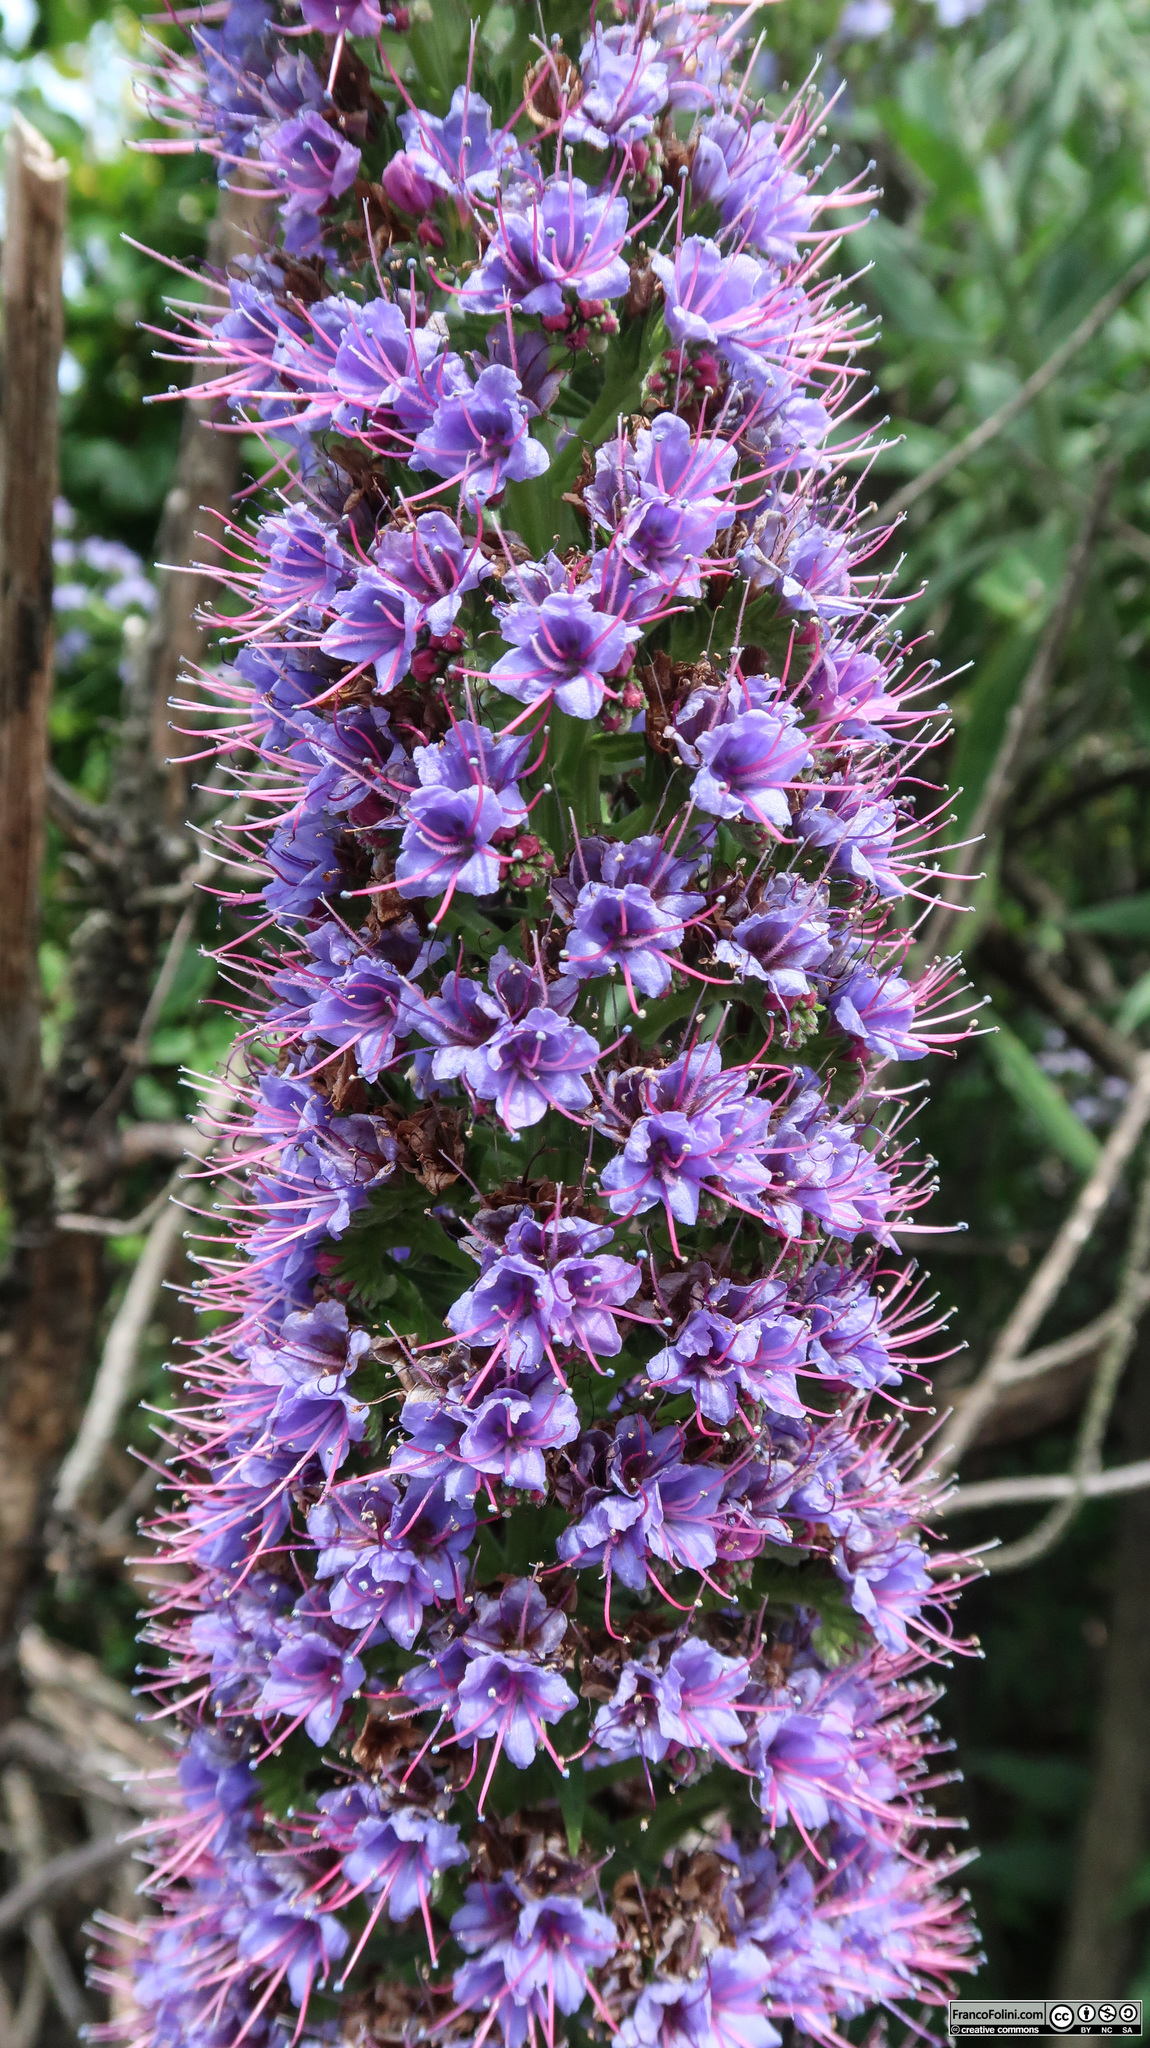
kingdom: Plantae
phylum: Tracheophyta
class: Magnoliopsida
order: Boraginales
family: Boraginaceae
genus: Echium
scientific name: Echium candicans
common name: Pride of madeira
